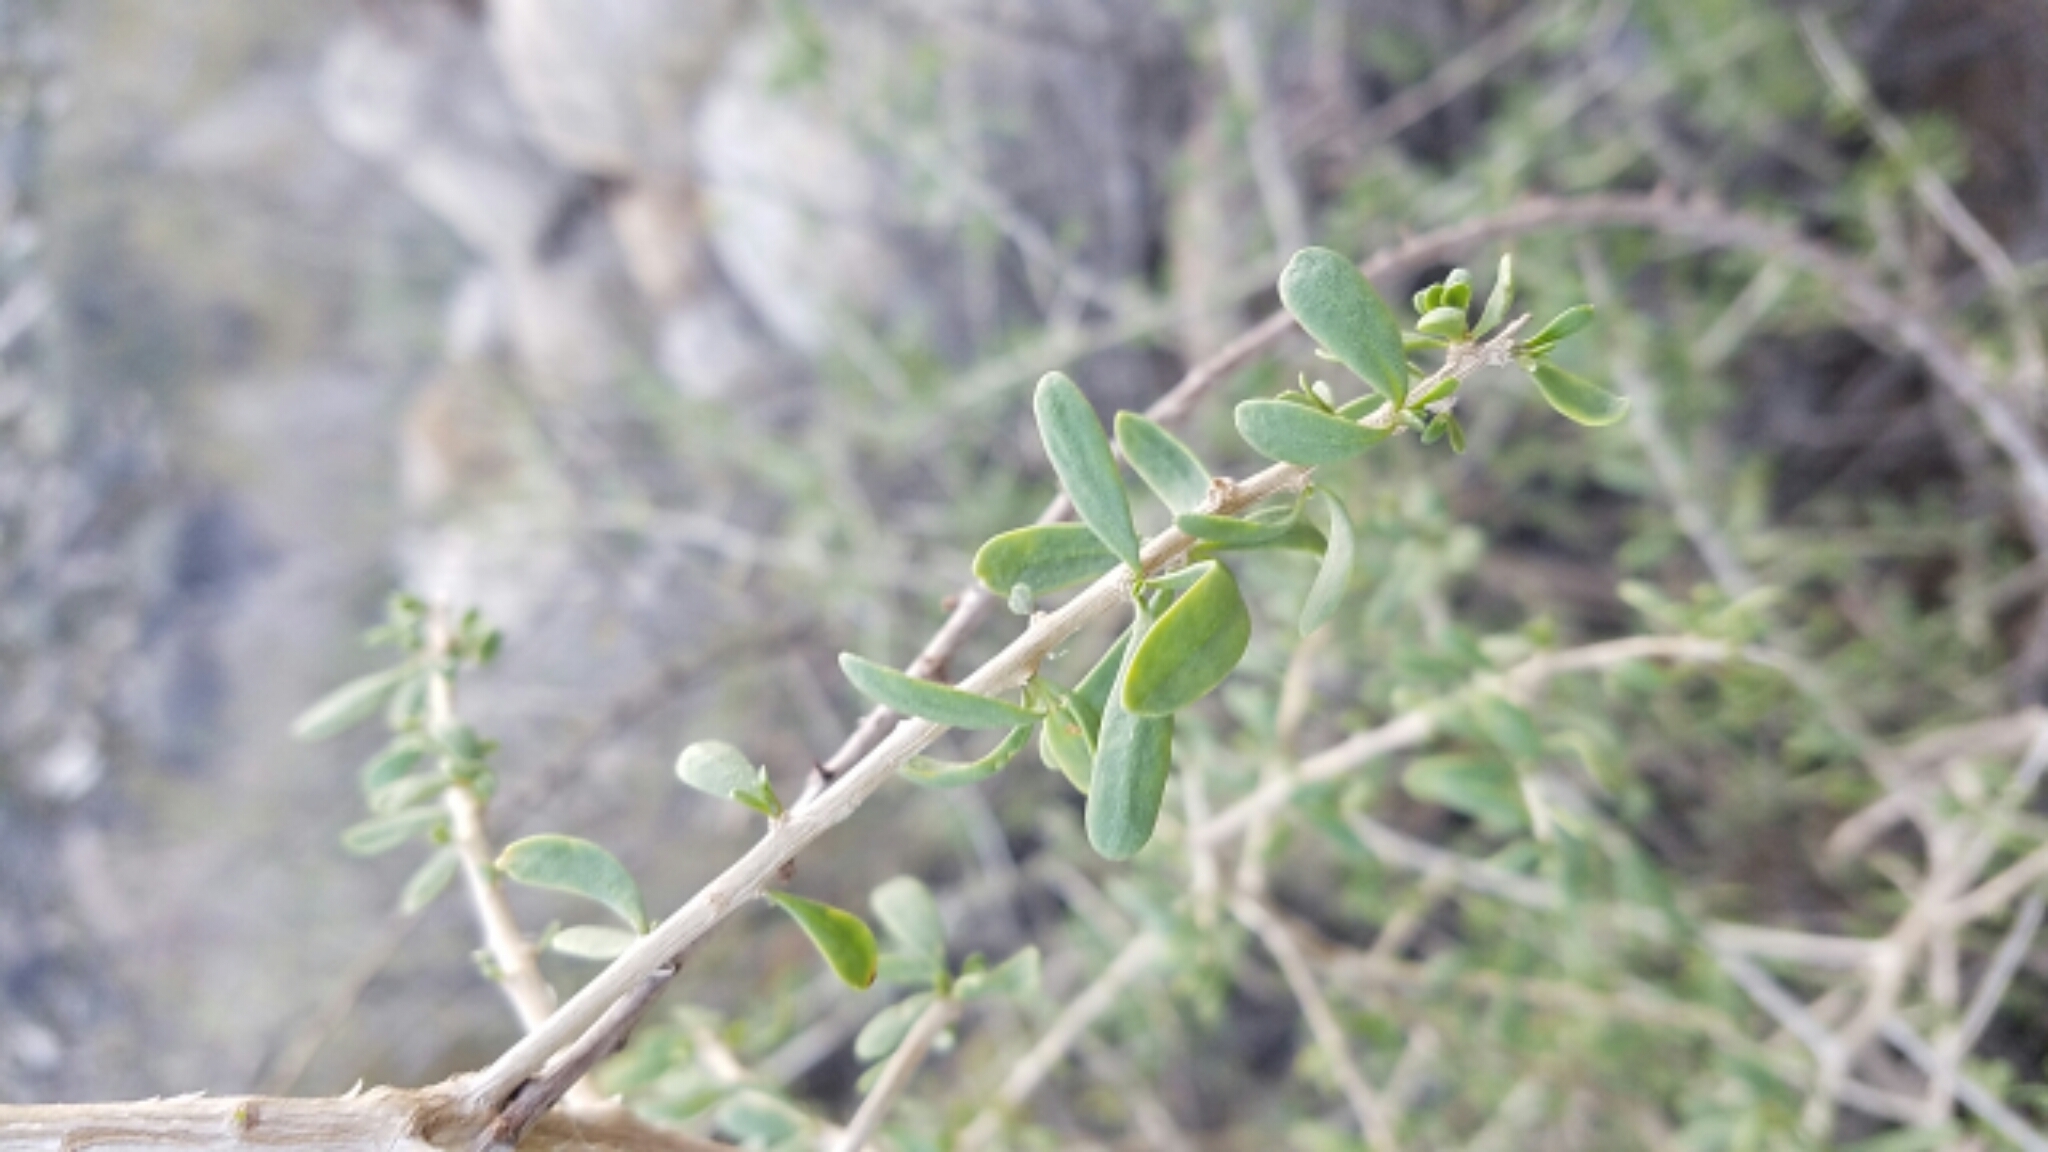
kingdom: Plantae
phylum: Tracheophyta
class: Magnoliopsida
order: Solanales
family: Solanaceae
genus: Lycium
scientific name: Lycium andersonii
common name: Water-jacket
